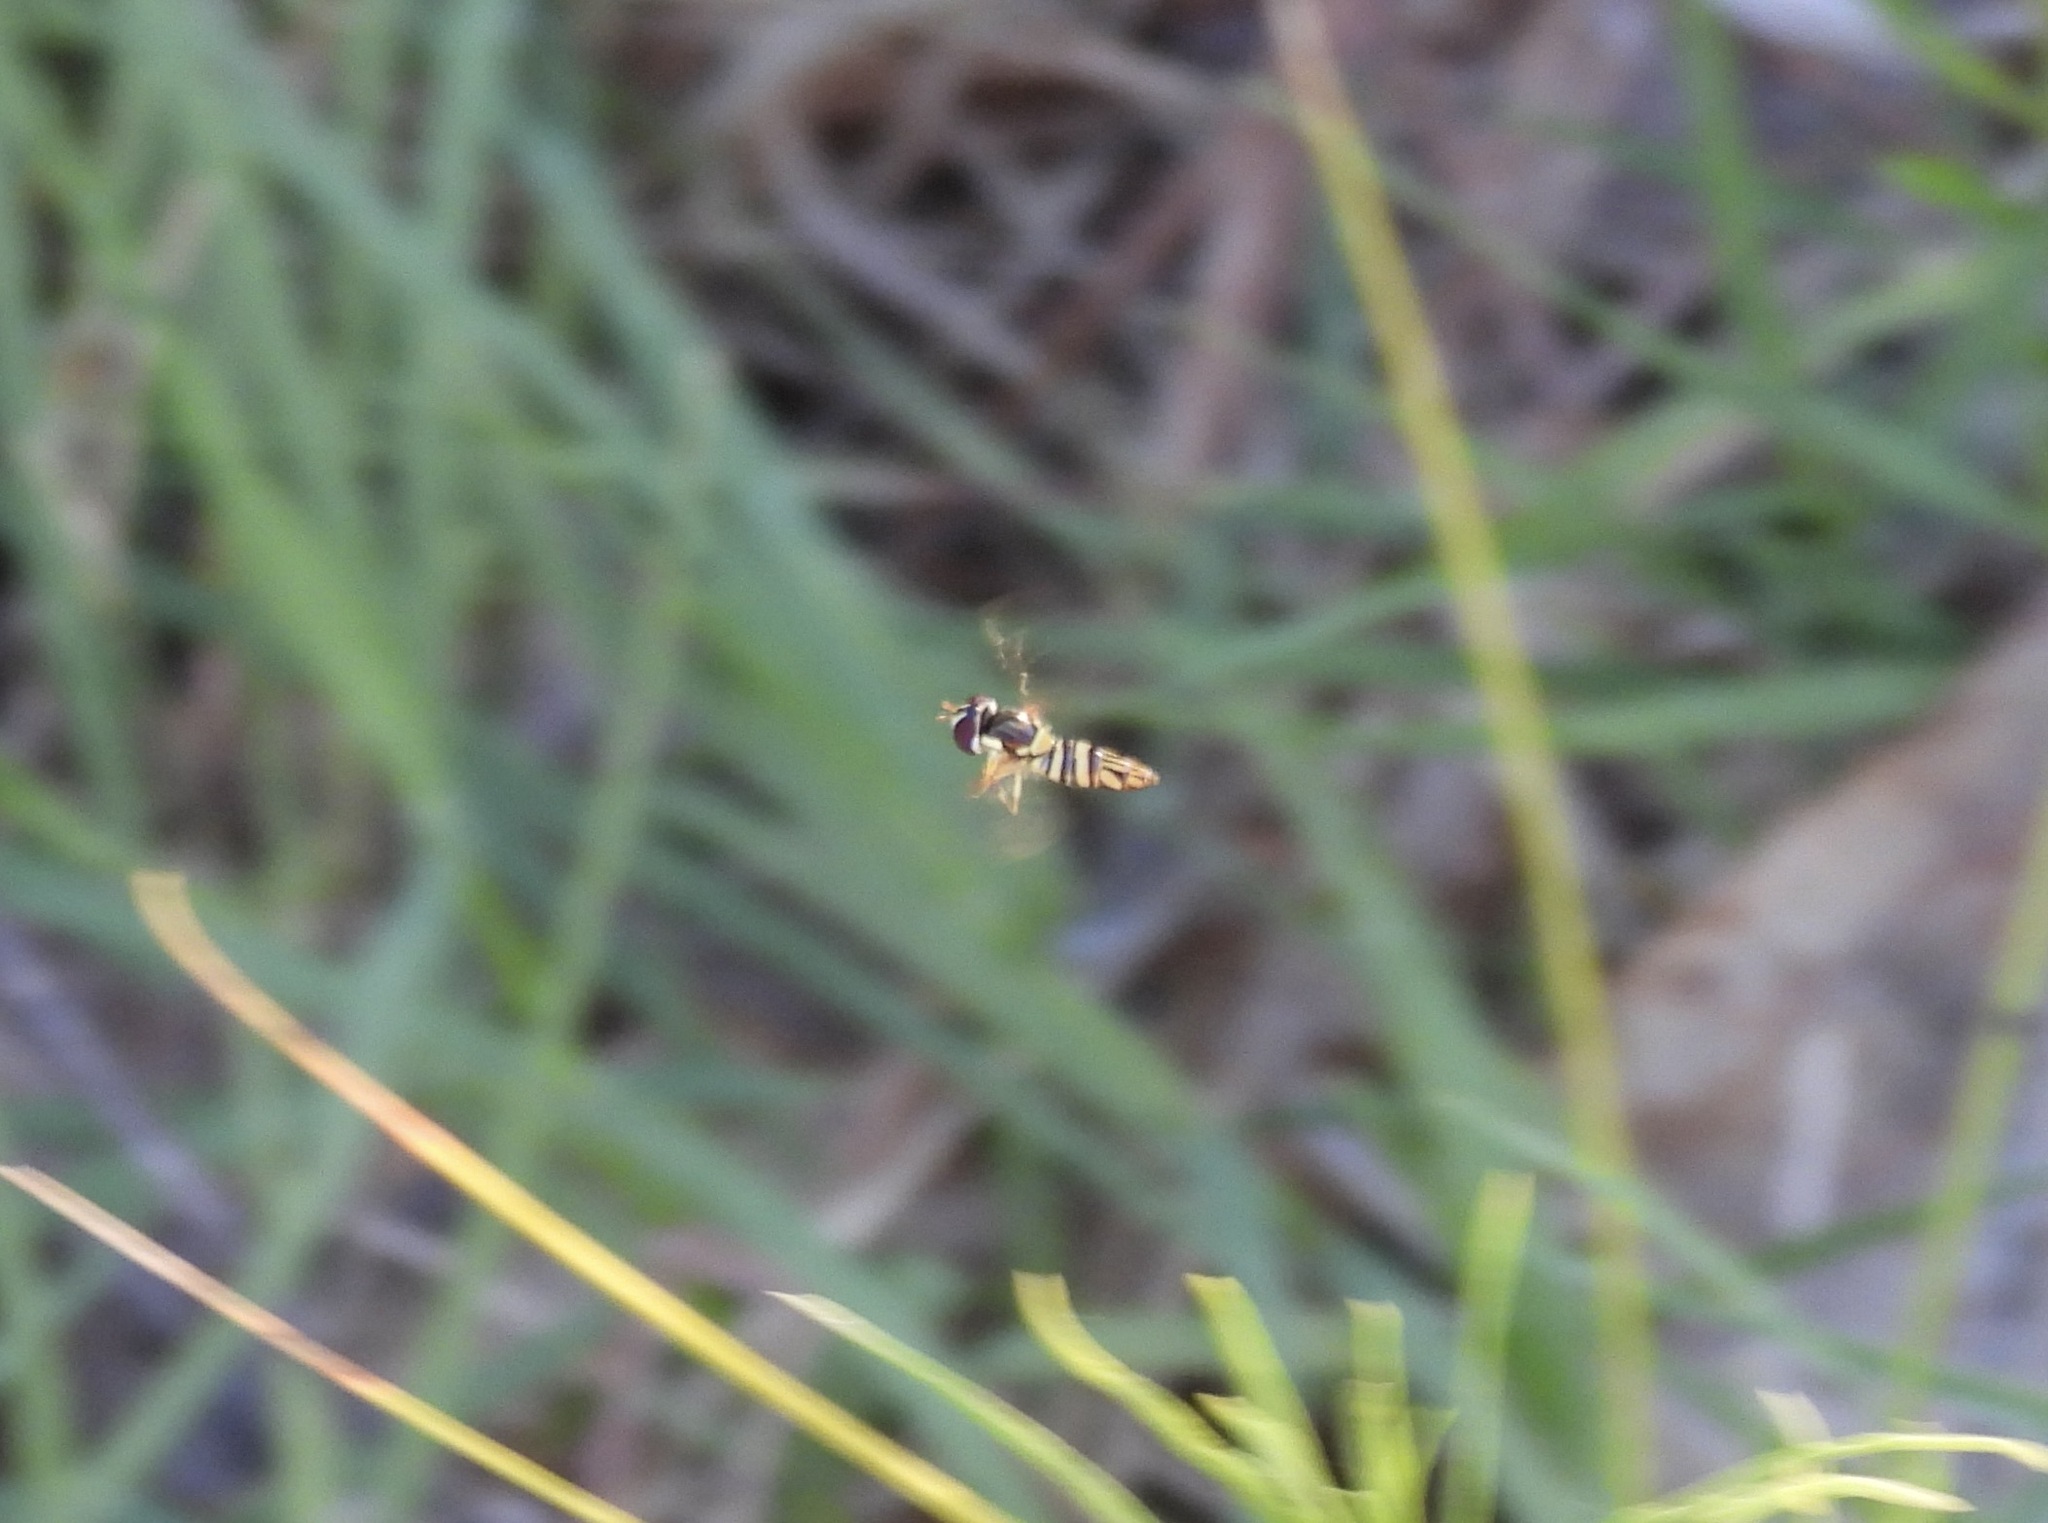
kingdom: Animalia
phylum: Arthropoda
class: Insecta
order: Diptera
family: Syrphidae
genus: Allograpta
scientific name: Allograpta obliqua
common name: Common oblique syrphid
